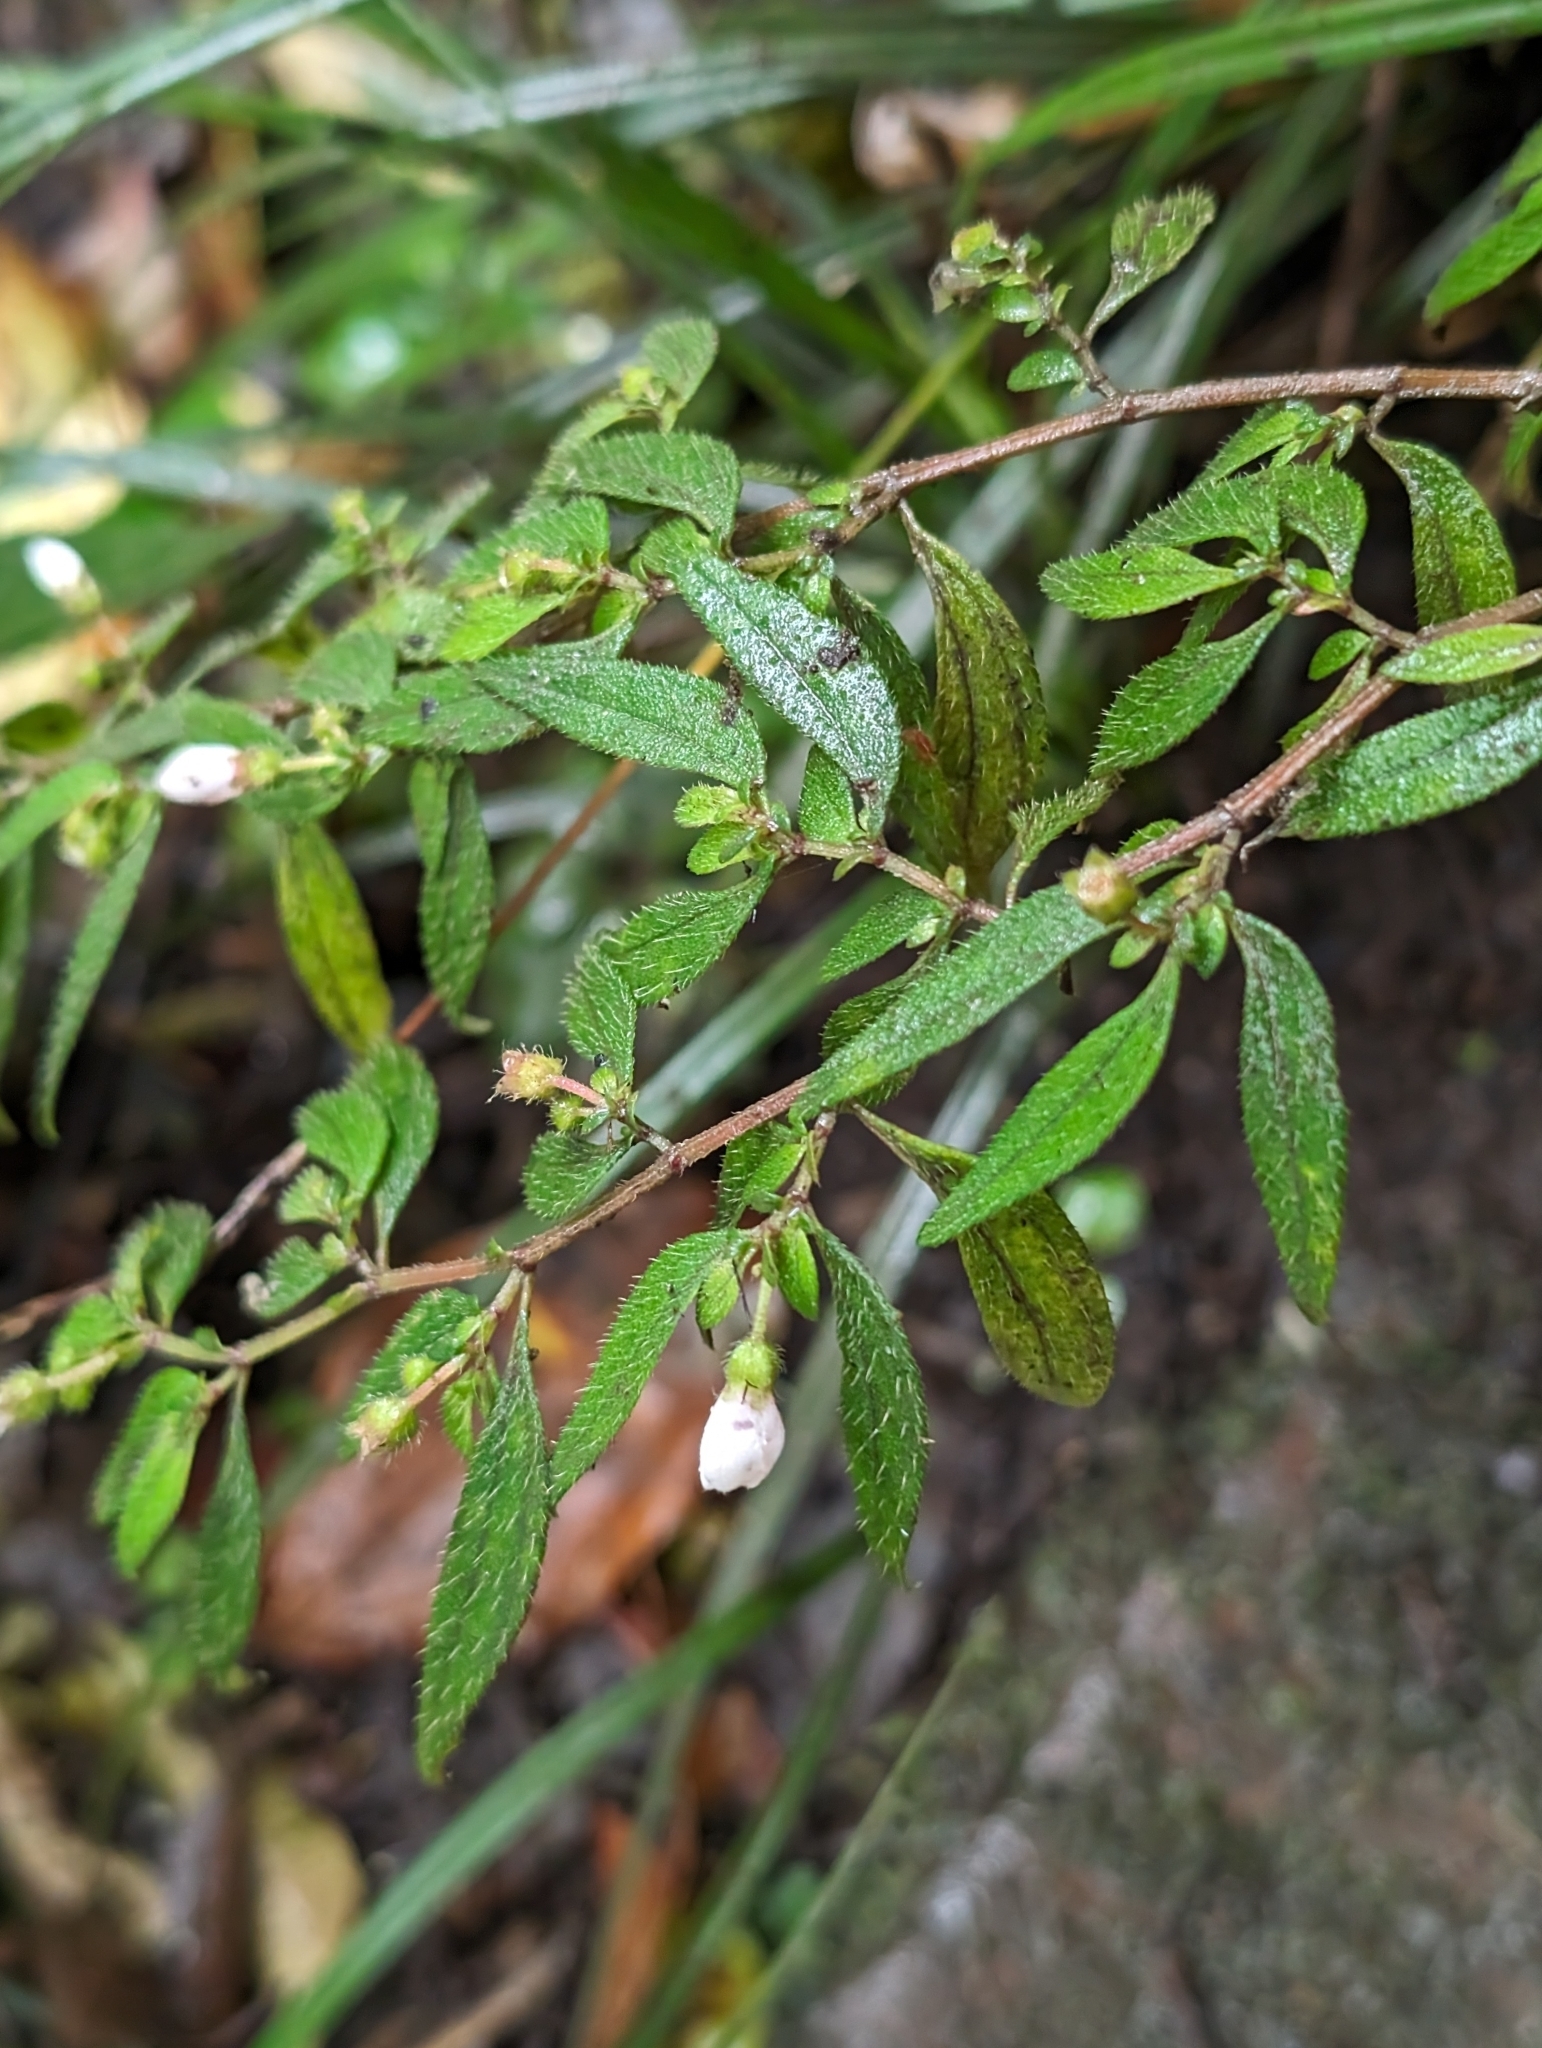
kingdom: Plantae
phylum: Tracheophyta
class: Magnoliopsida
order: Myrtales
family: Melastomataceae
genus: Centradenia
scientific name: Centradenia inaequilateralis
